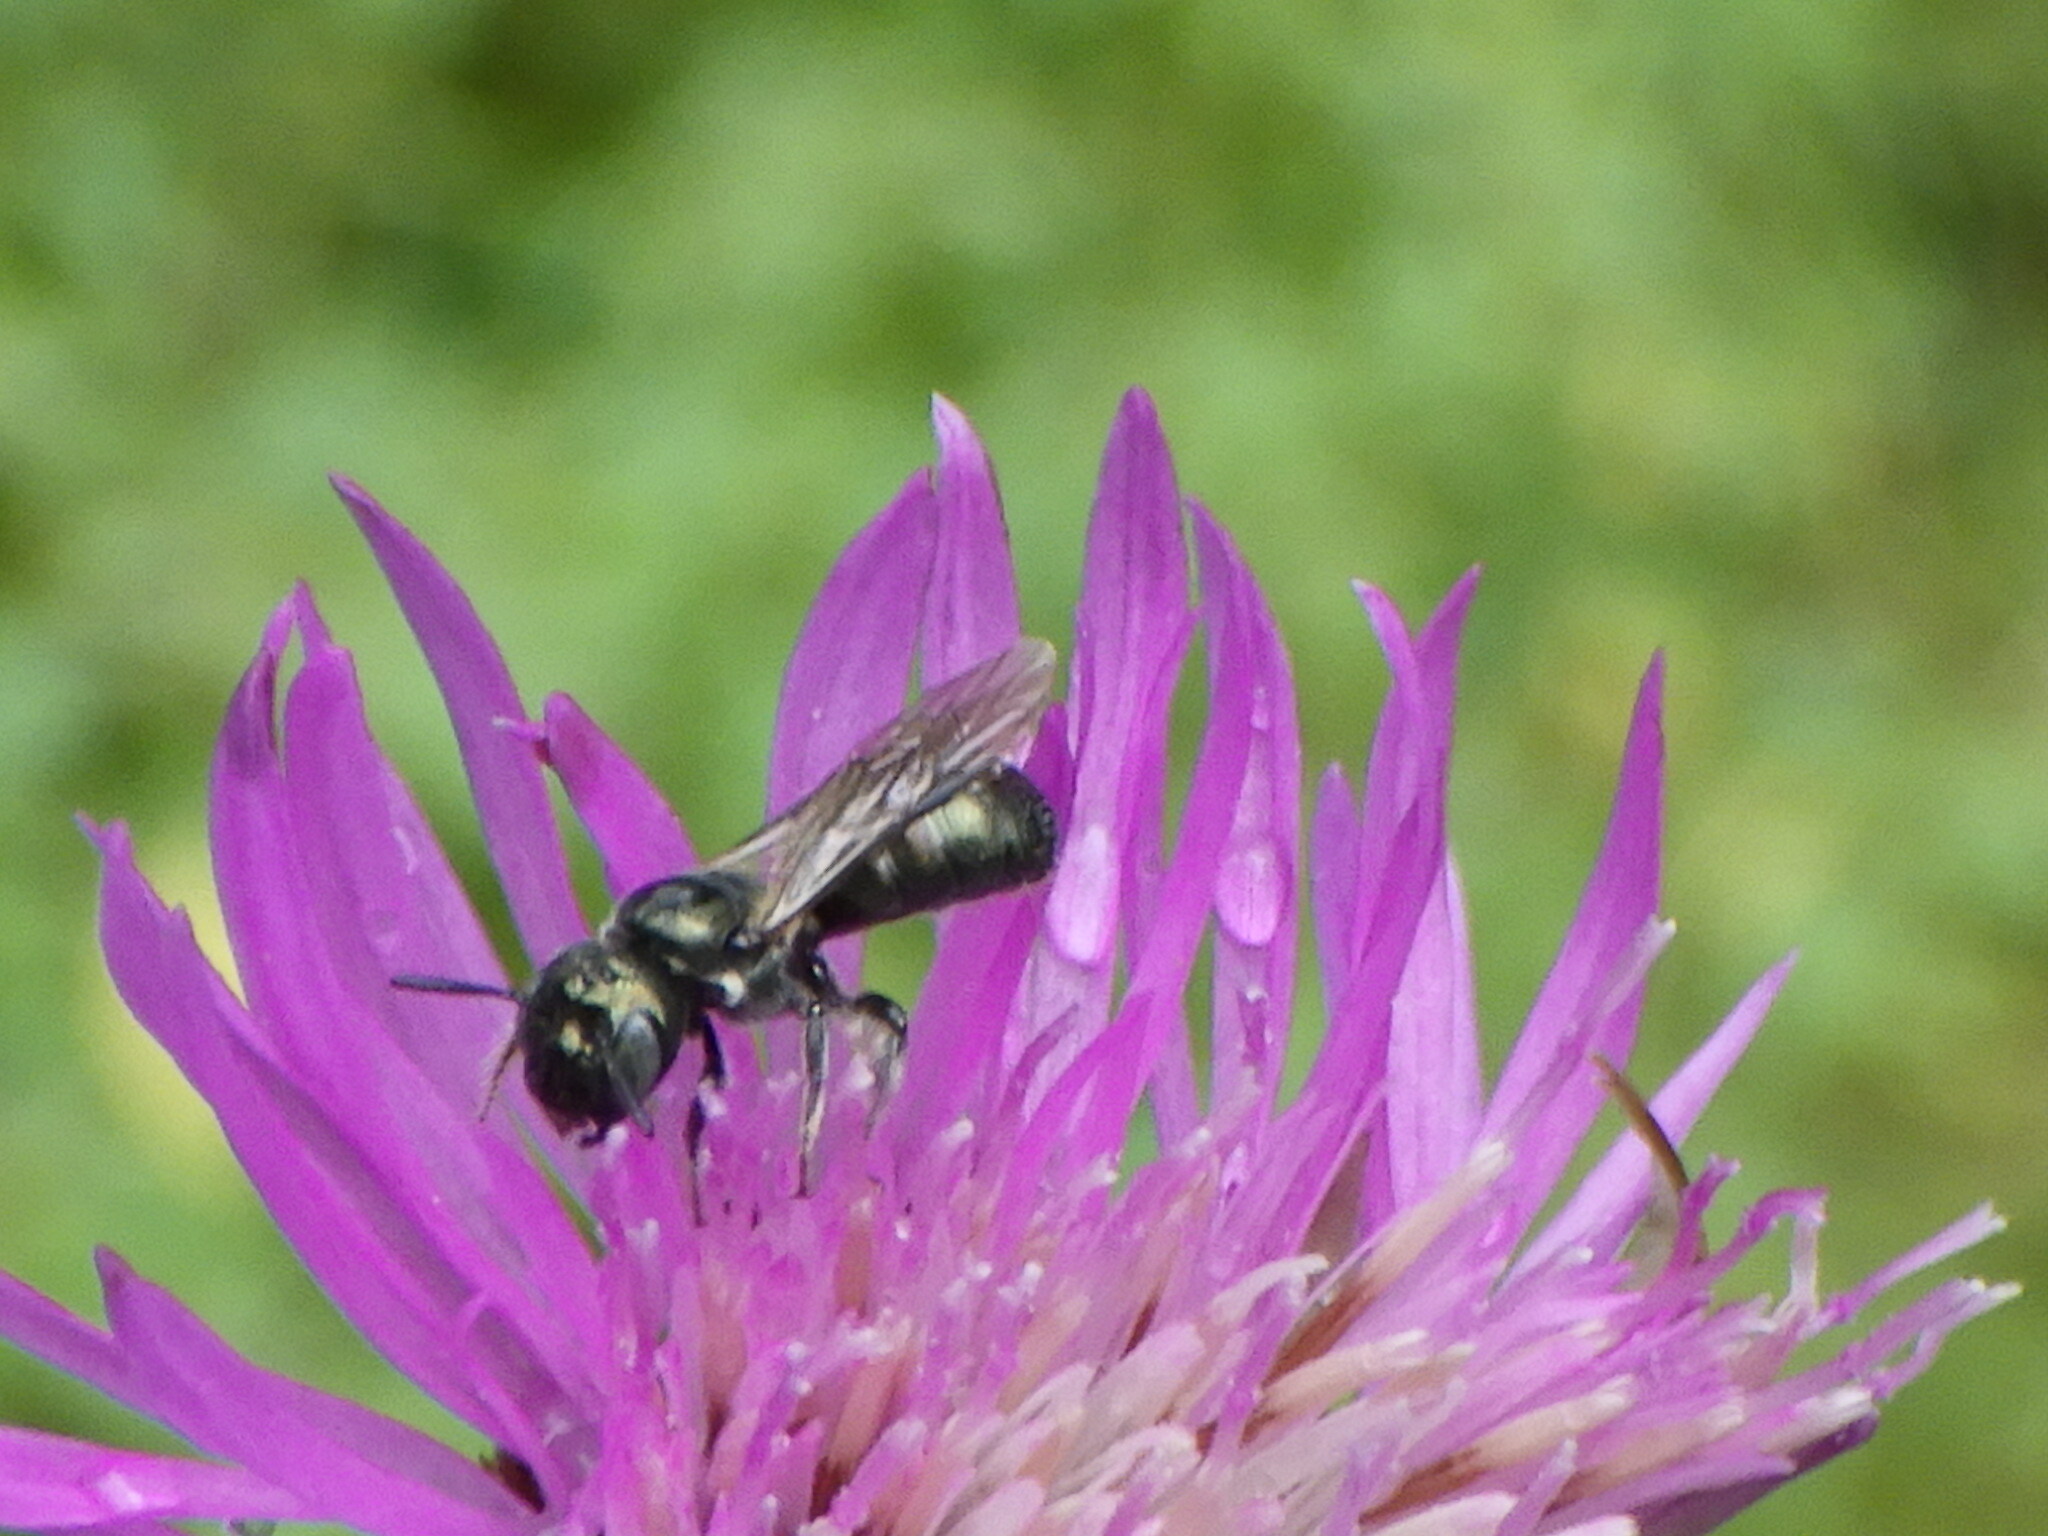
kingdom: Animalia
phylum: Arthropoda
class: Insecta
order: Hymenoptera
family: Apidae
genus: Zadontomerus
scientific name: Zadontomerus
